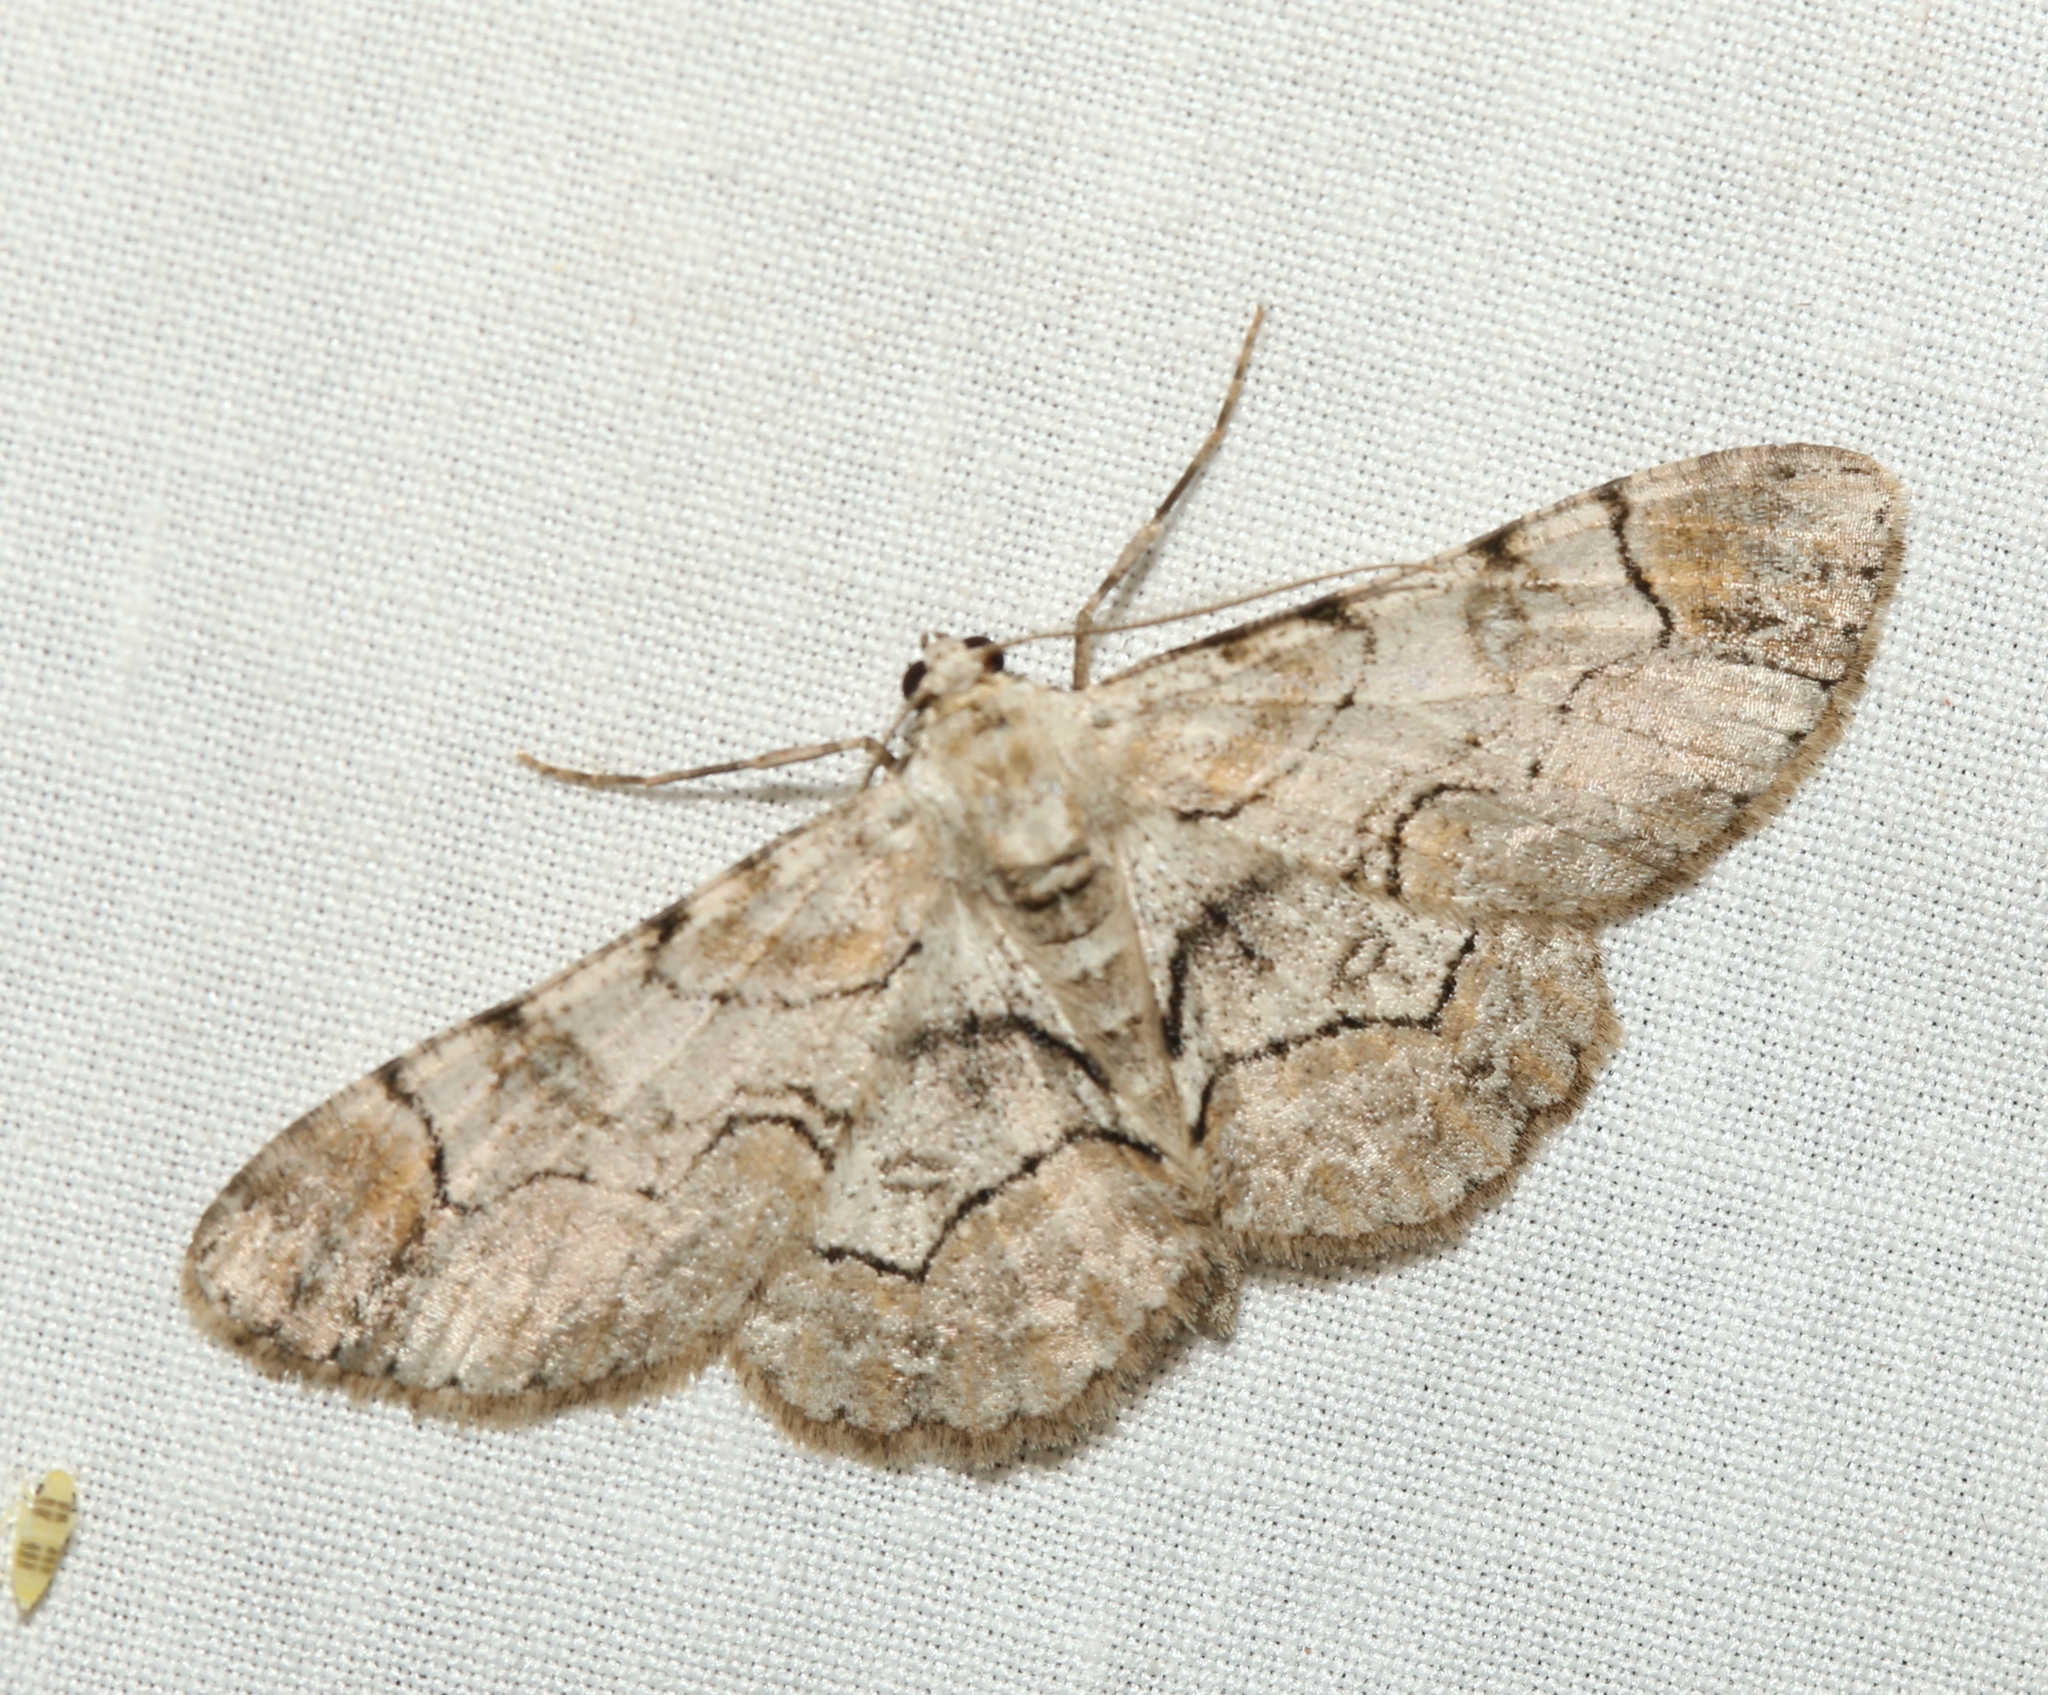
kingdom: Animalia
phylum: Arthropoda
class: Insecta
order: Lepidoptera
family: Geometridae
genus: Iridopsis
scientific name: Iridopsis larvaria
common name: Bent-line gray
